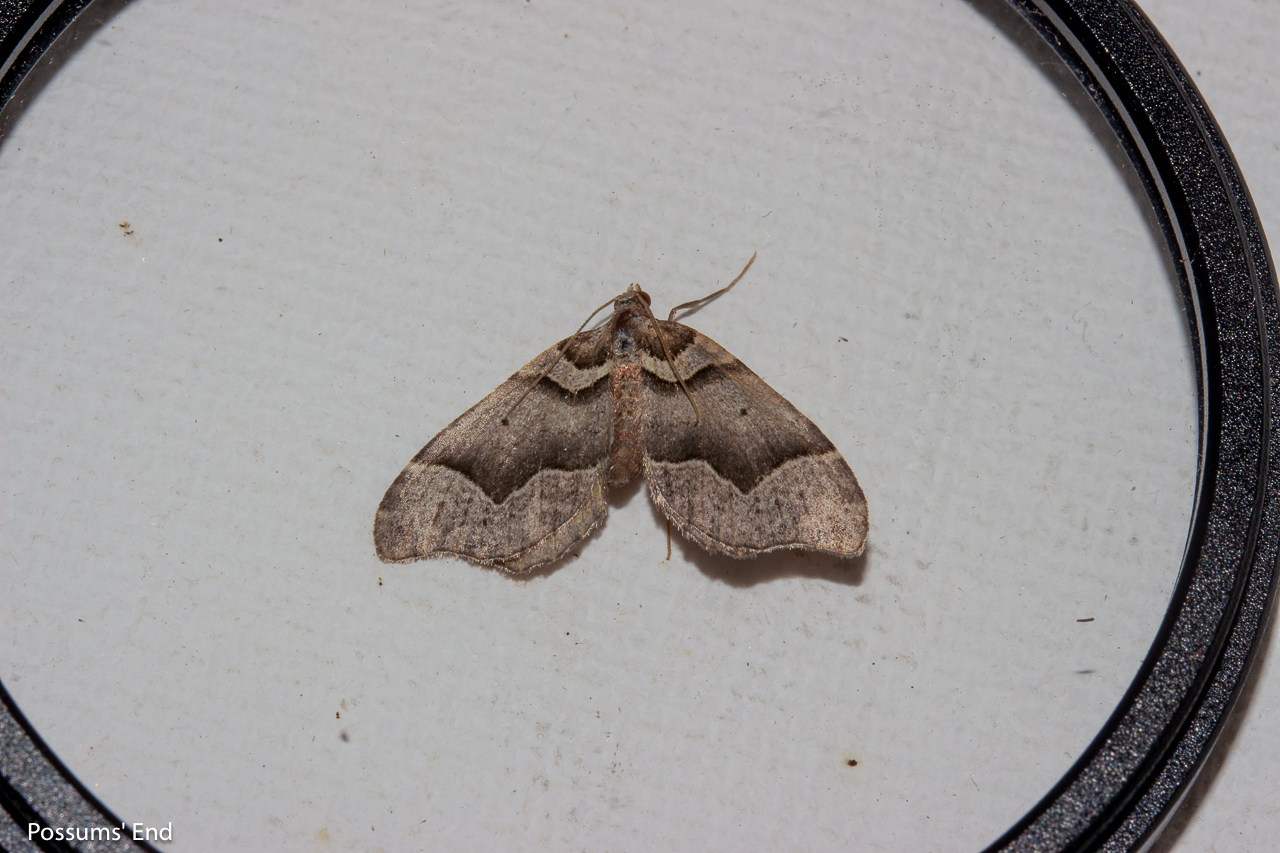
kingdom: Animalia
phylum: Arthropoda
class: Insecta
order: Lepidoptera
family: Geometridae
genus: Helastia
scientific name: Helastia triphragma
